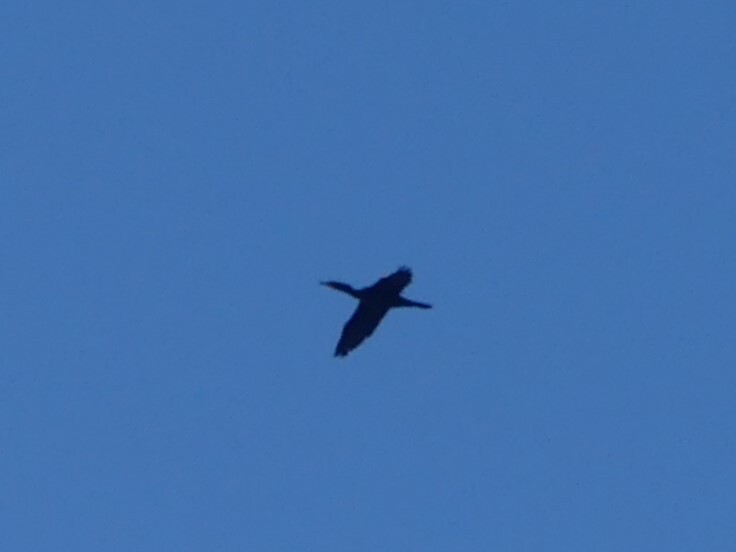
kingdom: Animalia
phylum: Chordata
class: Aves
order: Suliformes
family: Phalacrocoracidae
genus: Phalacrocorax
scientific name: Phalacrocorax auritus
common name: Double-crested cormorant
